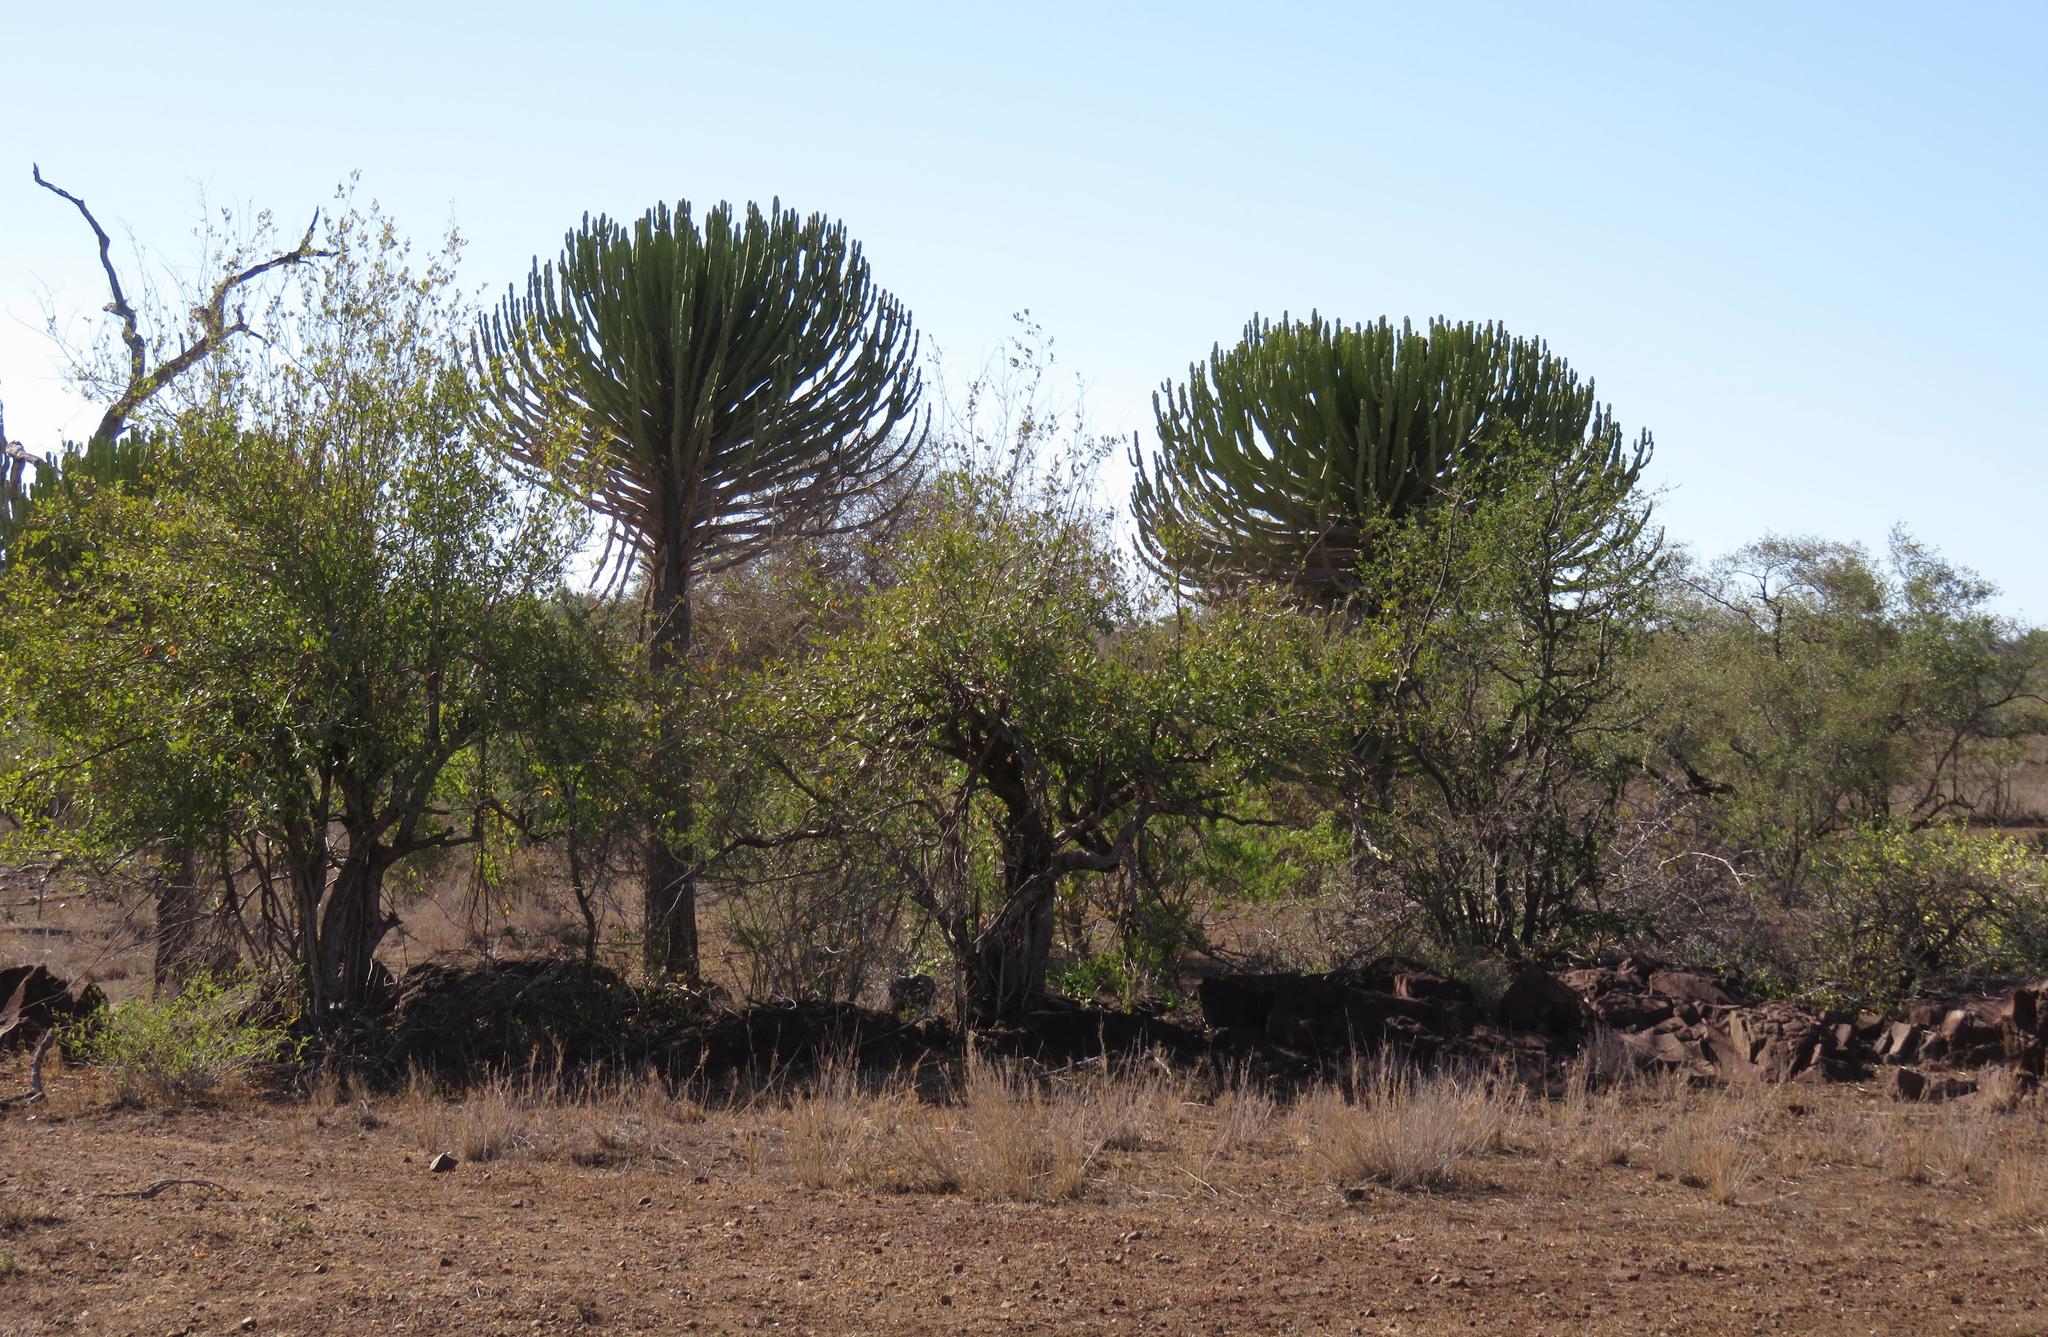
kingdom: Plantae
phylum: Tracheophyta
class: Magnoliopsida
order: Malpighiales
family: Euphorbiaceae
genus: Euphorbia
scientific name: Euphorbia confinalis
